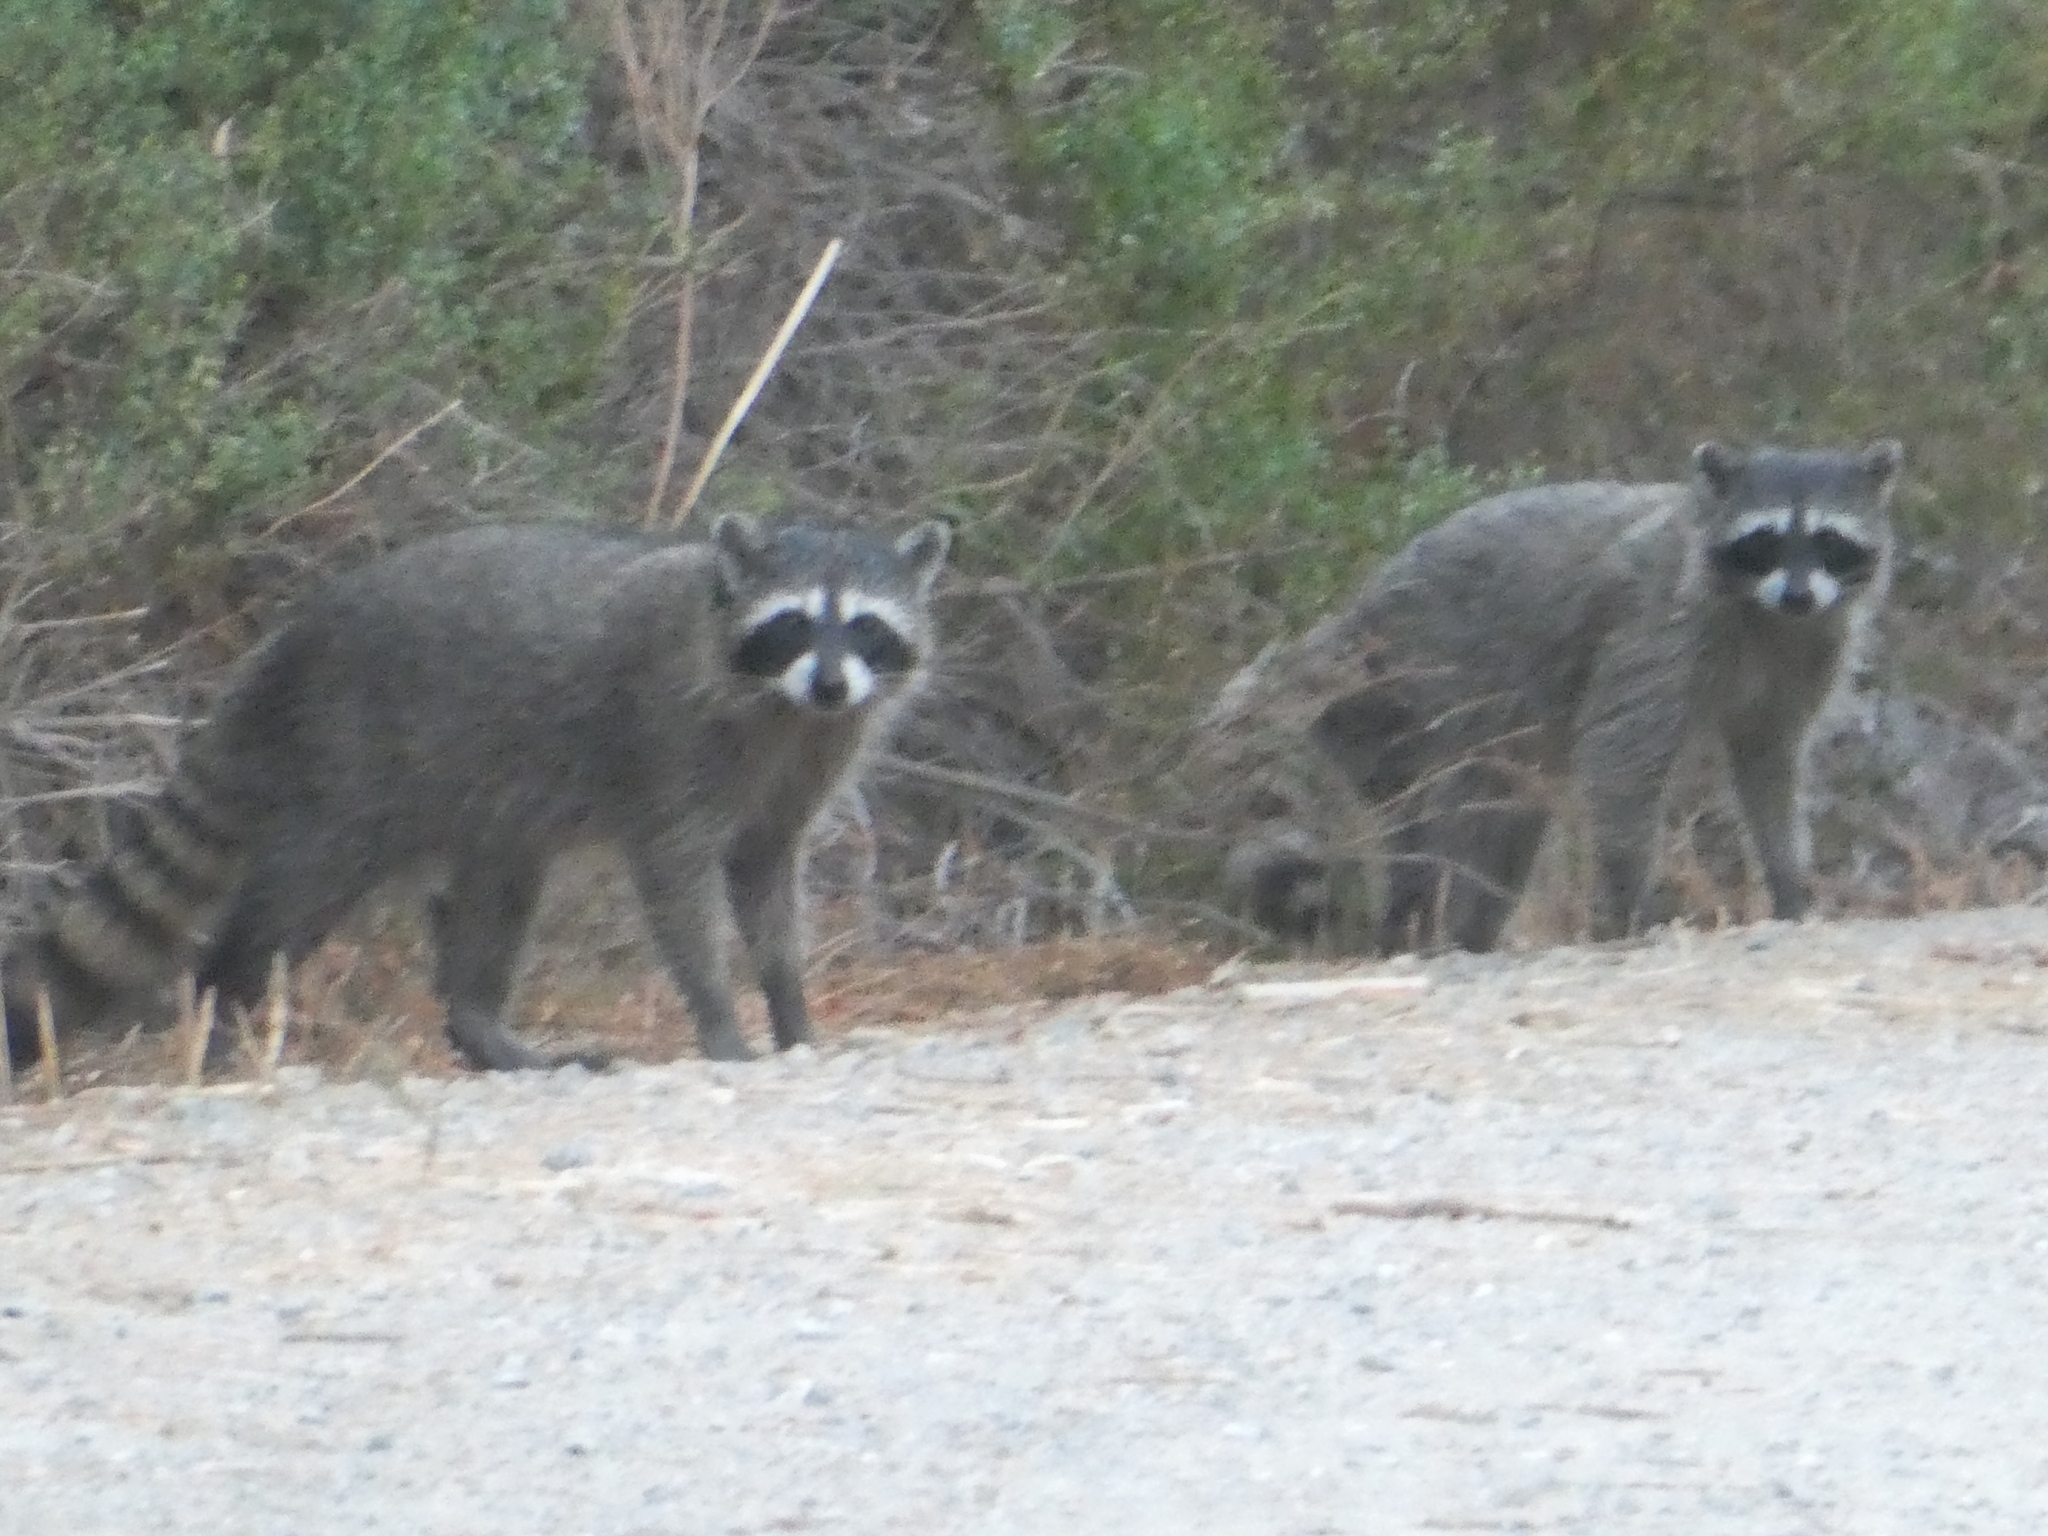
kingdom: Animalia
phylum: Chordata
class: Mammalia
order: Carnivora
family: Procyonidae
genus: Procyon
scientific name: Procyon lotor
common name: Raccoon
